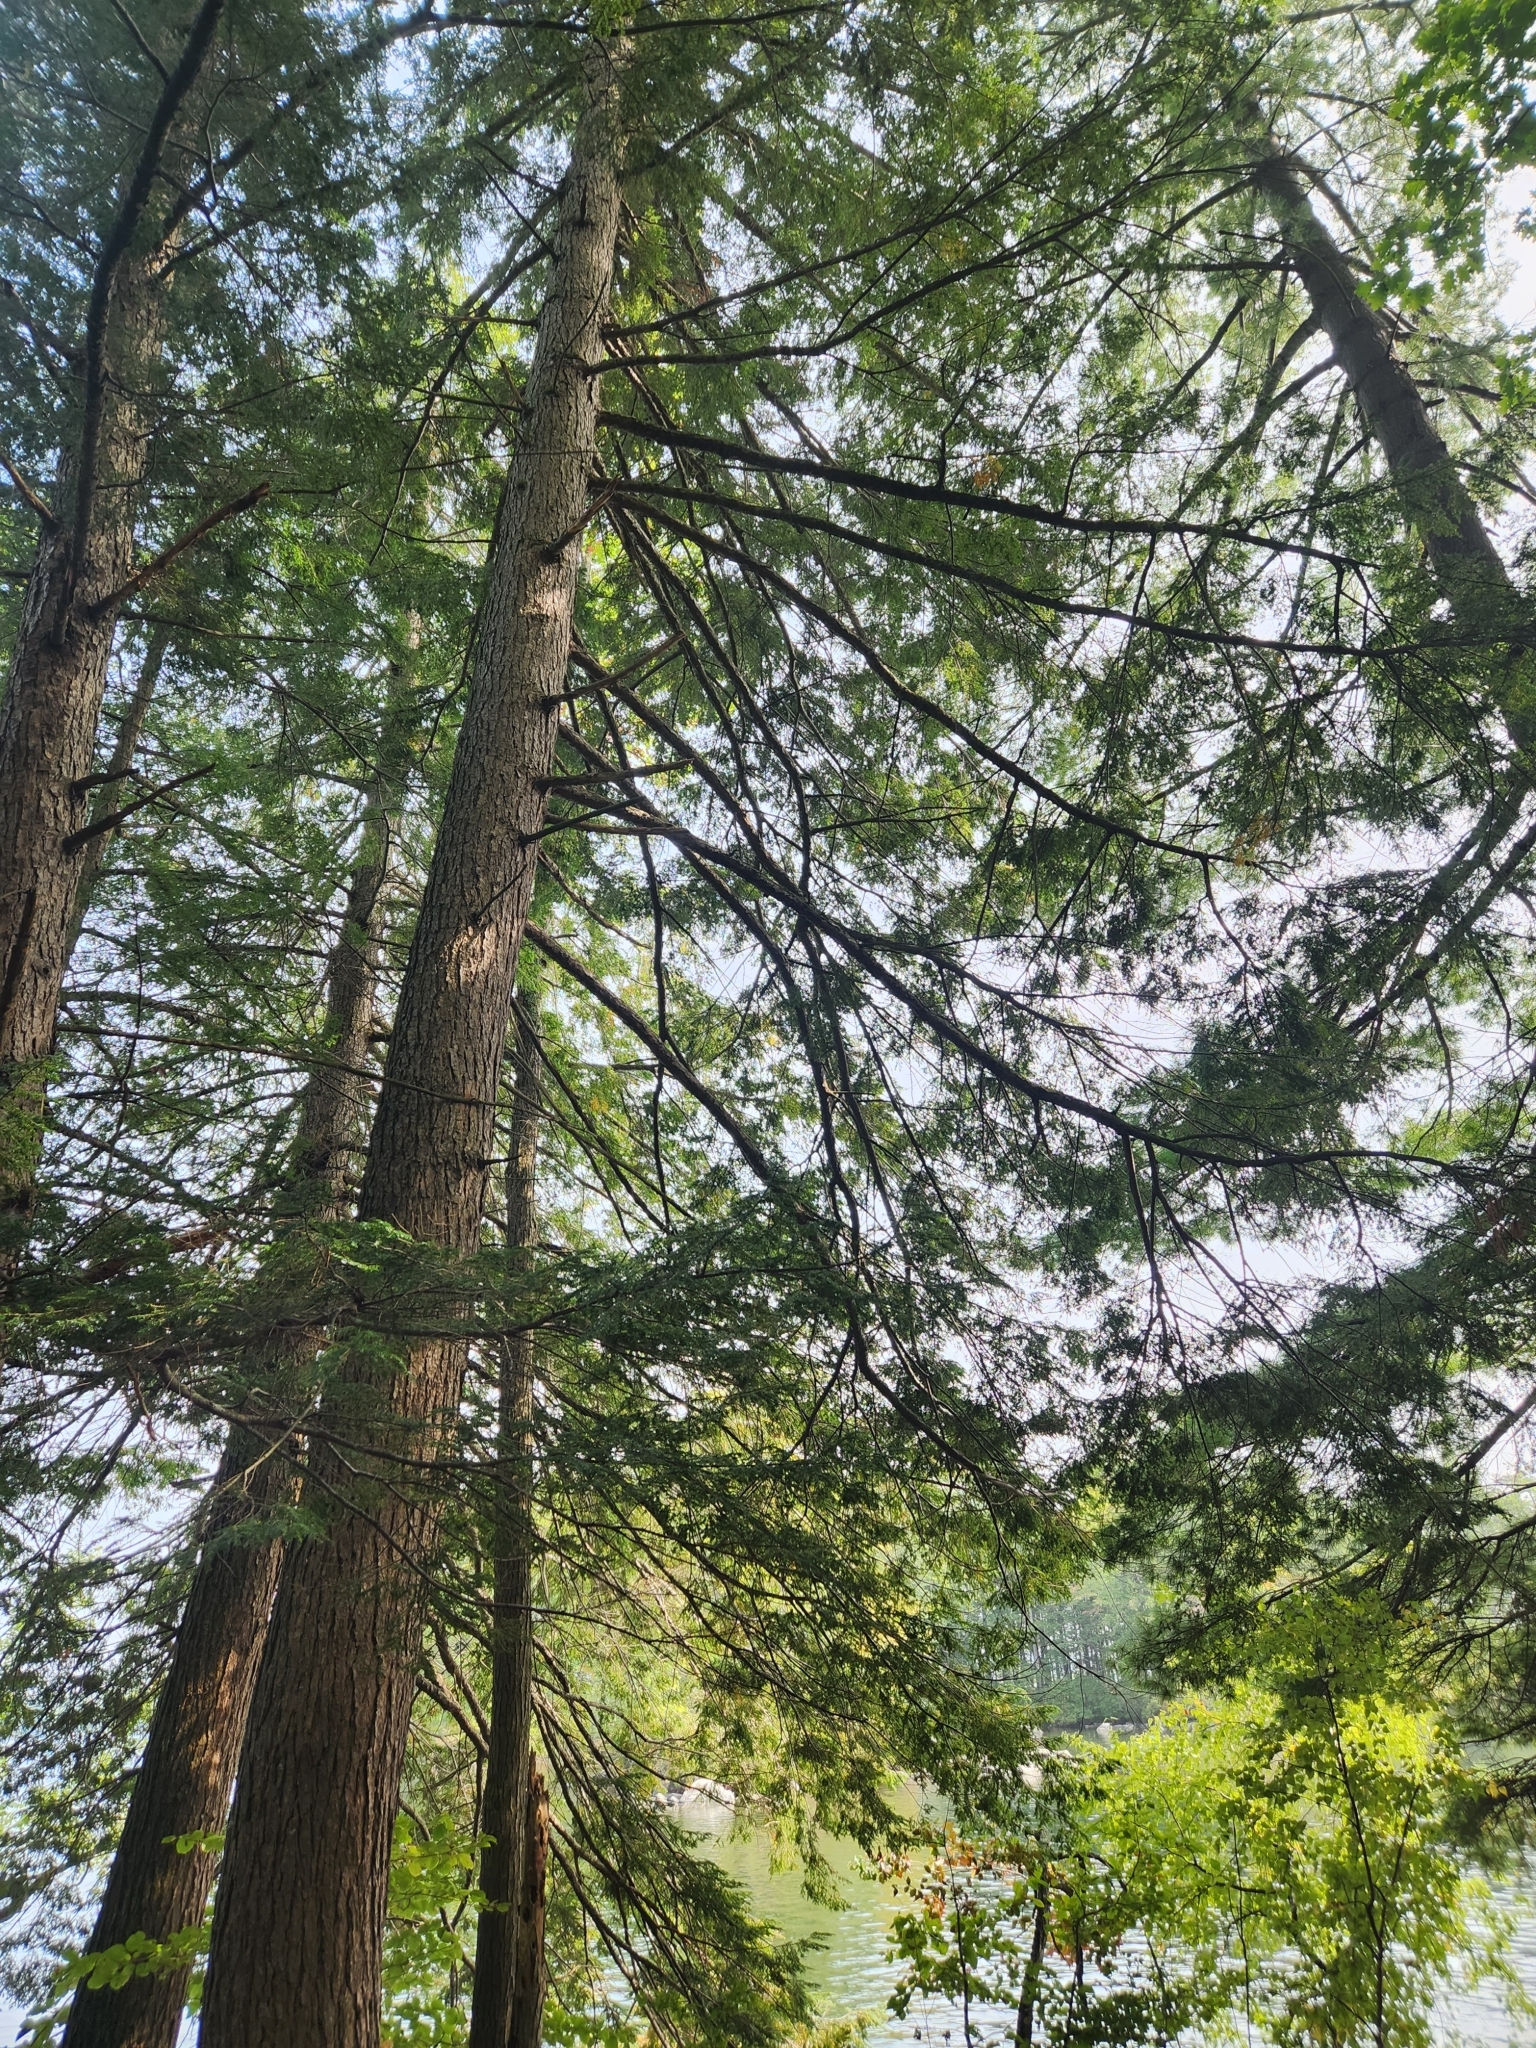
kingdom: Plantae
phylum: Tracheophyta
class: Pinopsida
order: Pinales
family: Pinaceae
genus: Tsuga
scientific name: Tsuga canadensis
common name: Eastern hemlock
